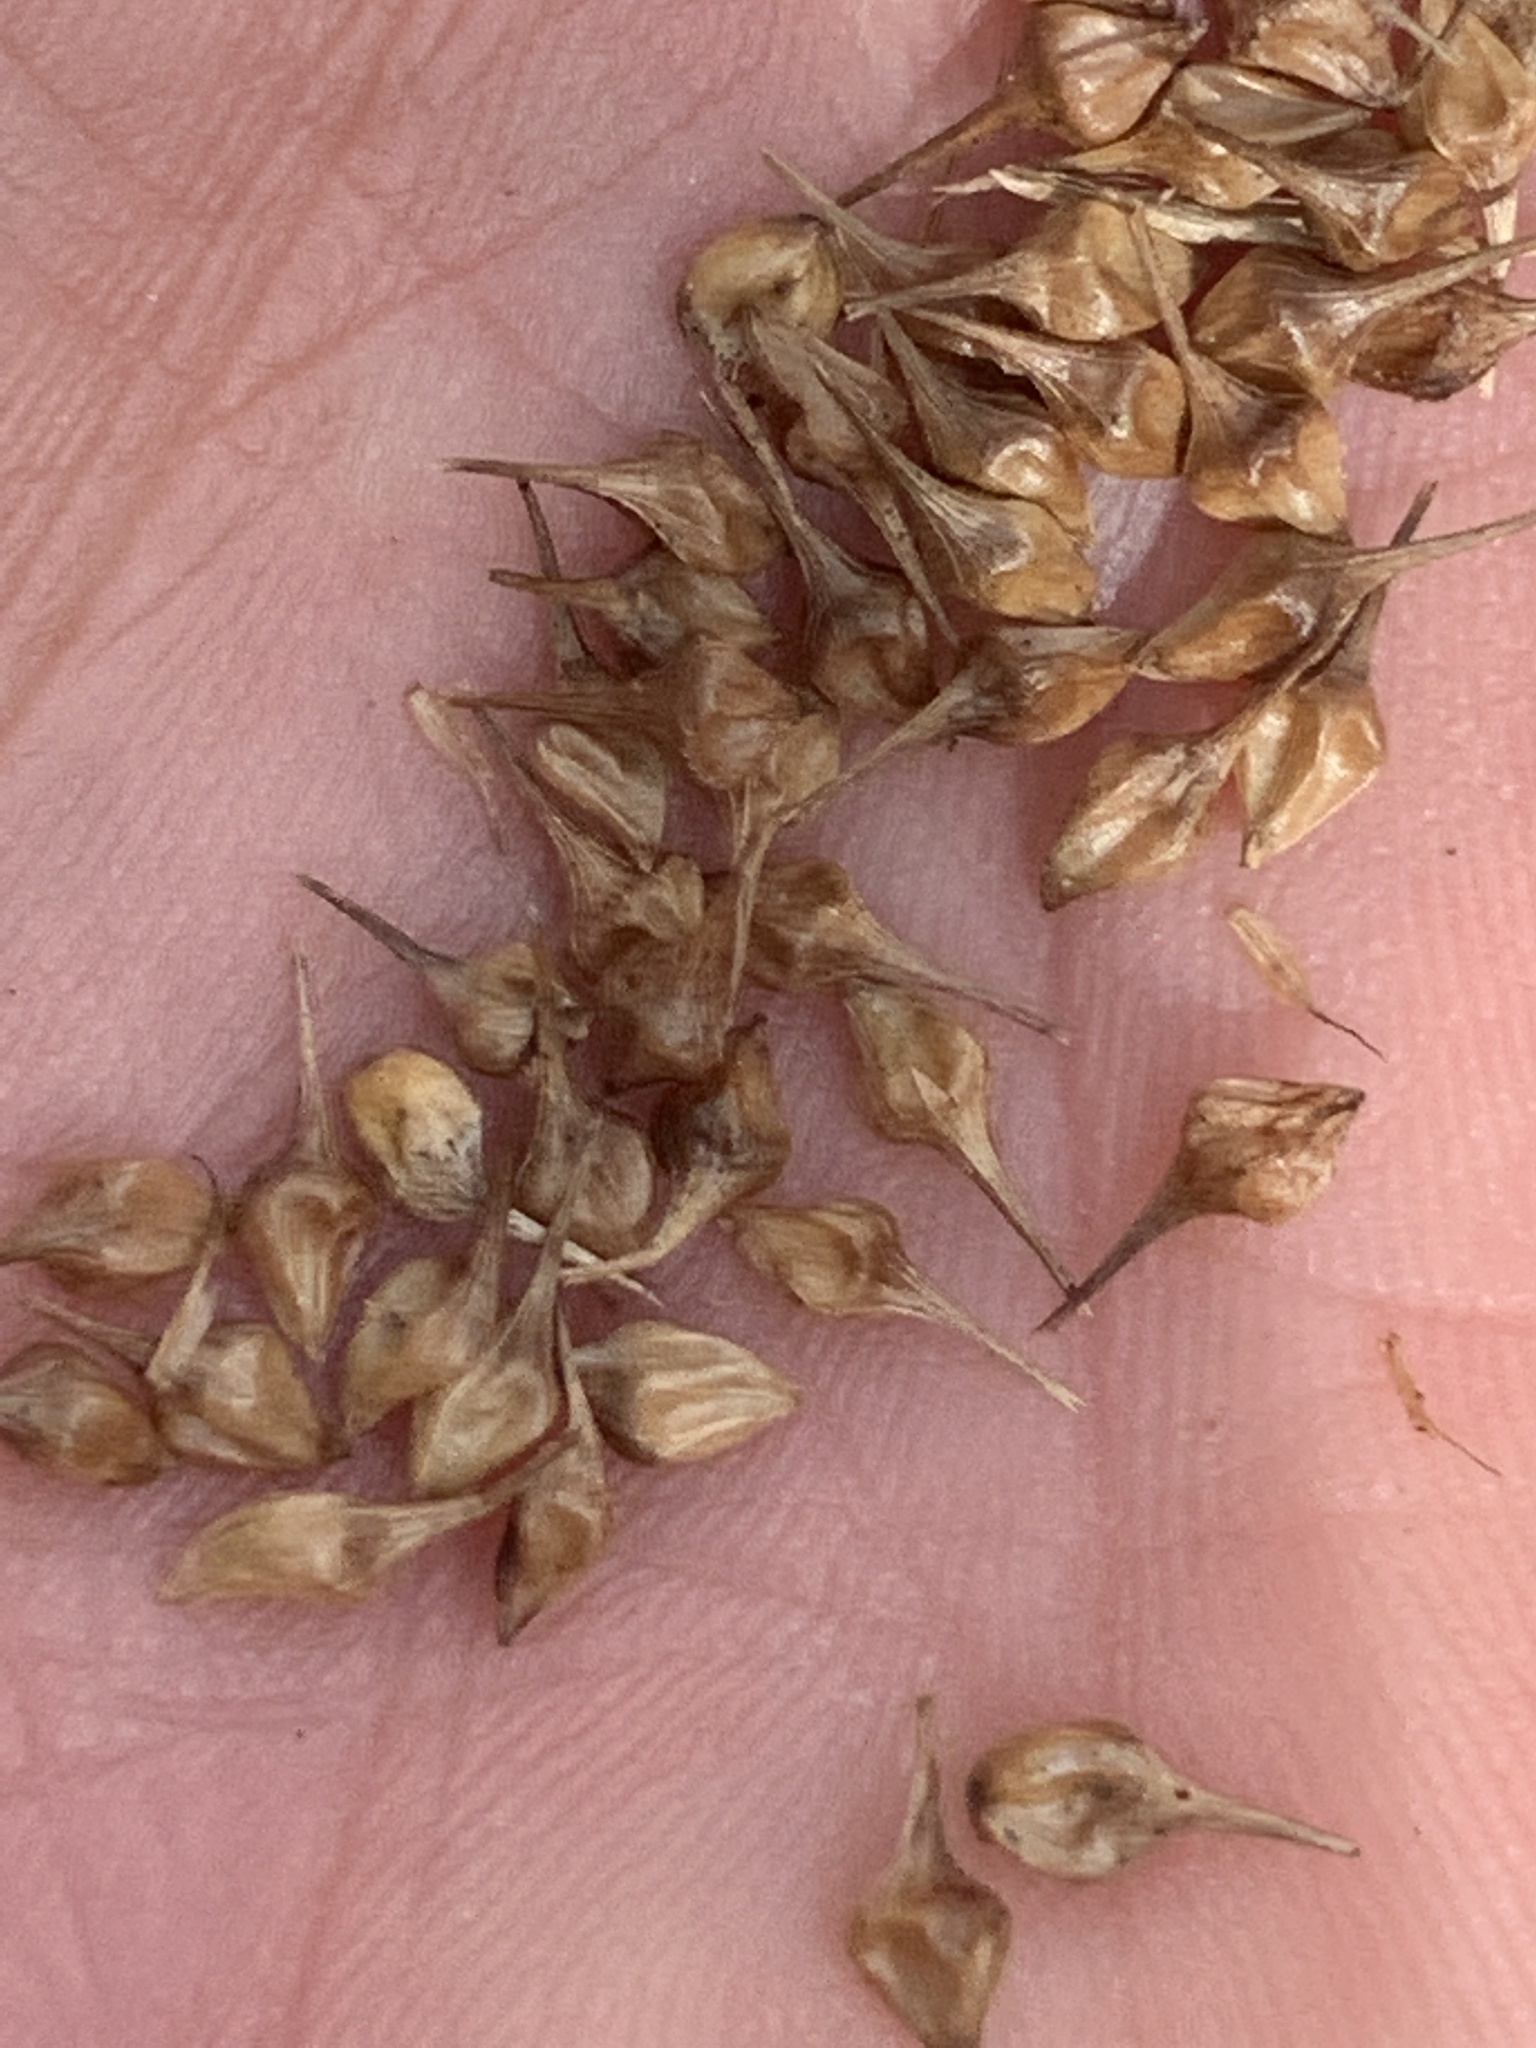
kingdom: Plantae
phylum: Tracheophyta
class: Liliopsida
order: Poales
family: Cyperaceae
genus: Carex
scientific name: Carex lurida
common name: Sallow sedge
